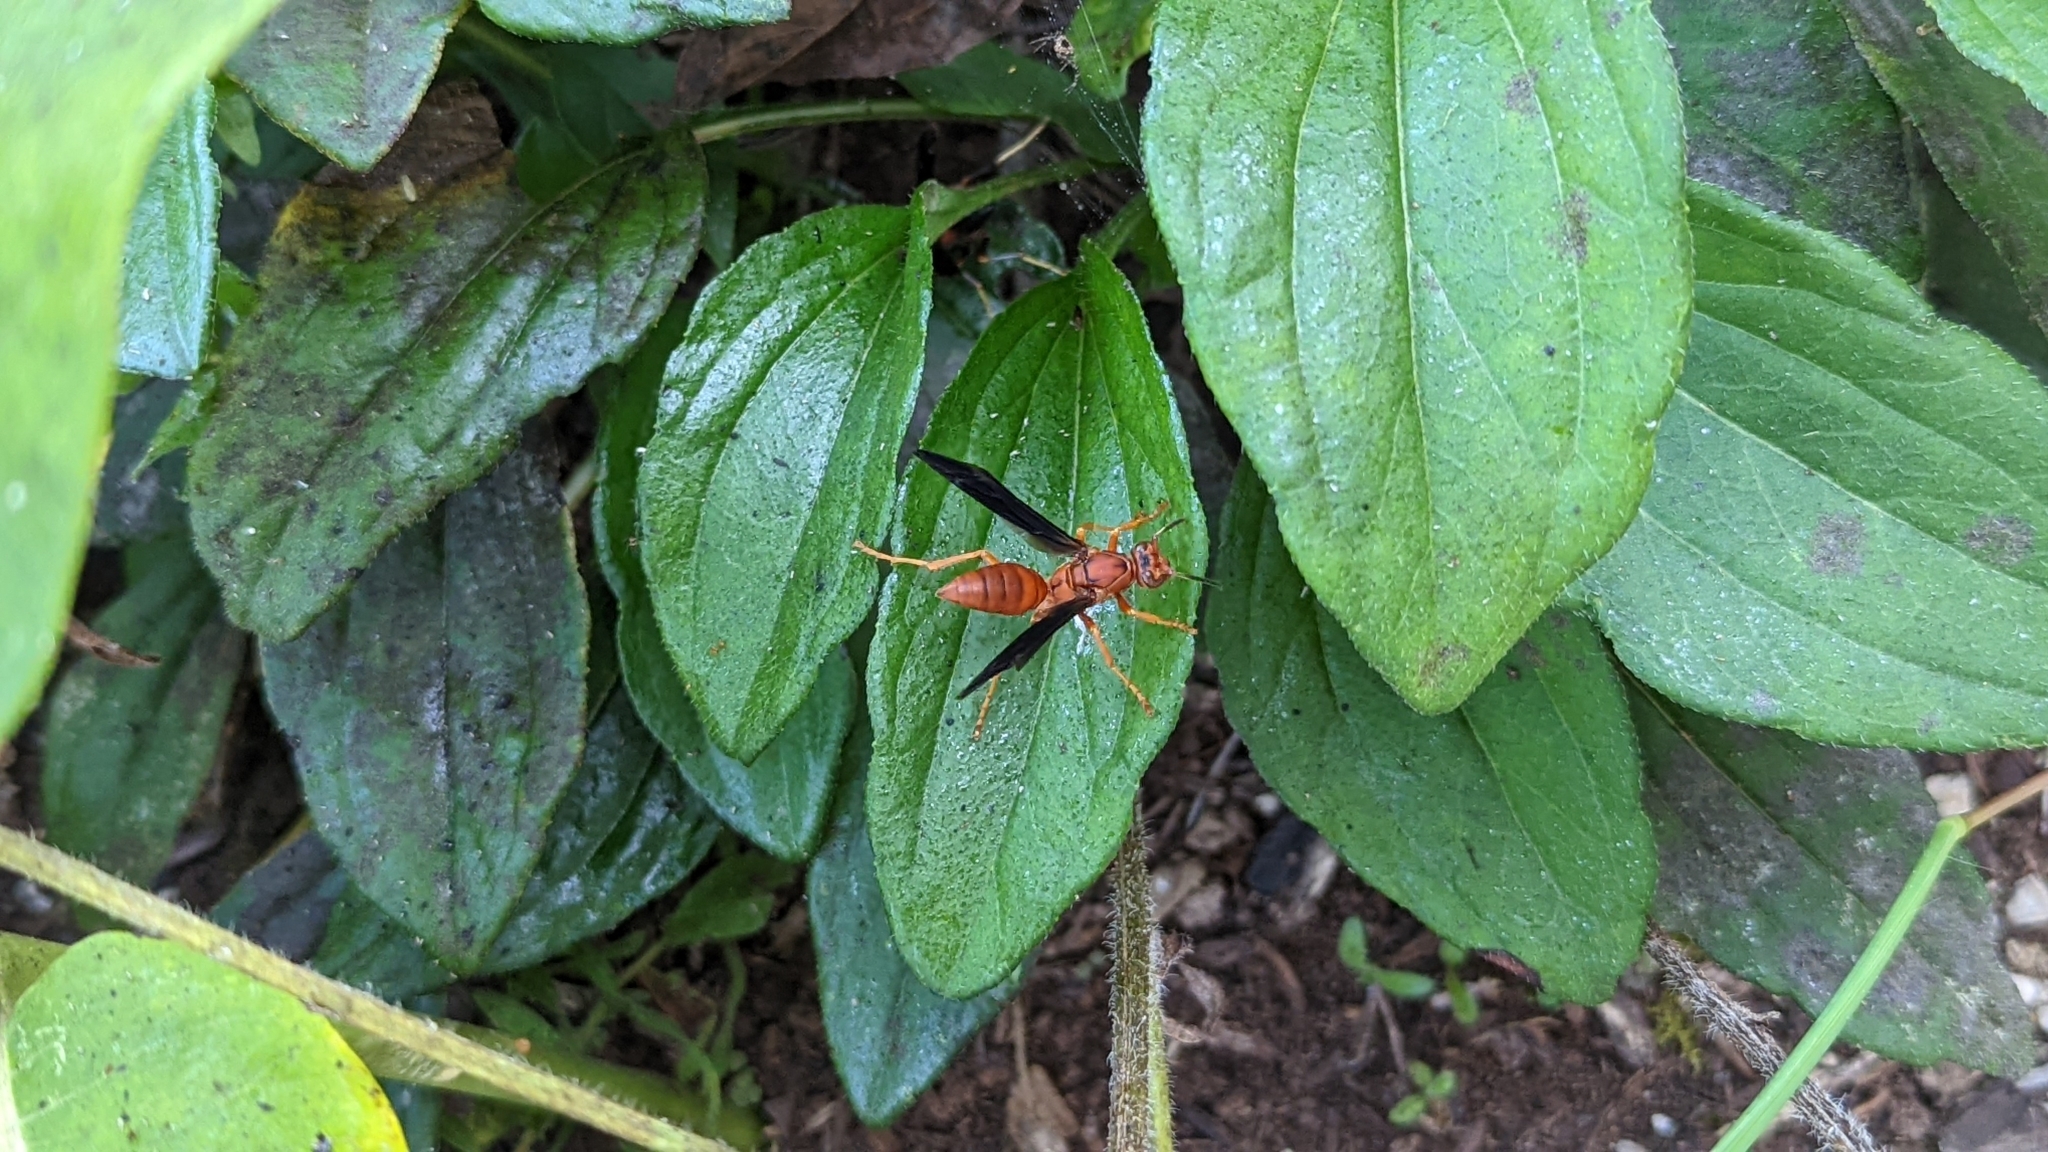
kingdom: Animalia
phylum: Arthropoda
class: Insecta
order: Hymenoptera
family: Vespidae
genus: Fuscopolistes
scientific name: Fuscopolistes
